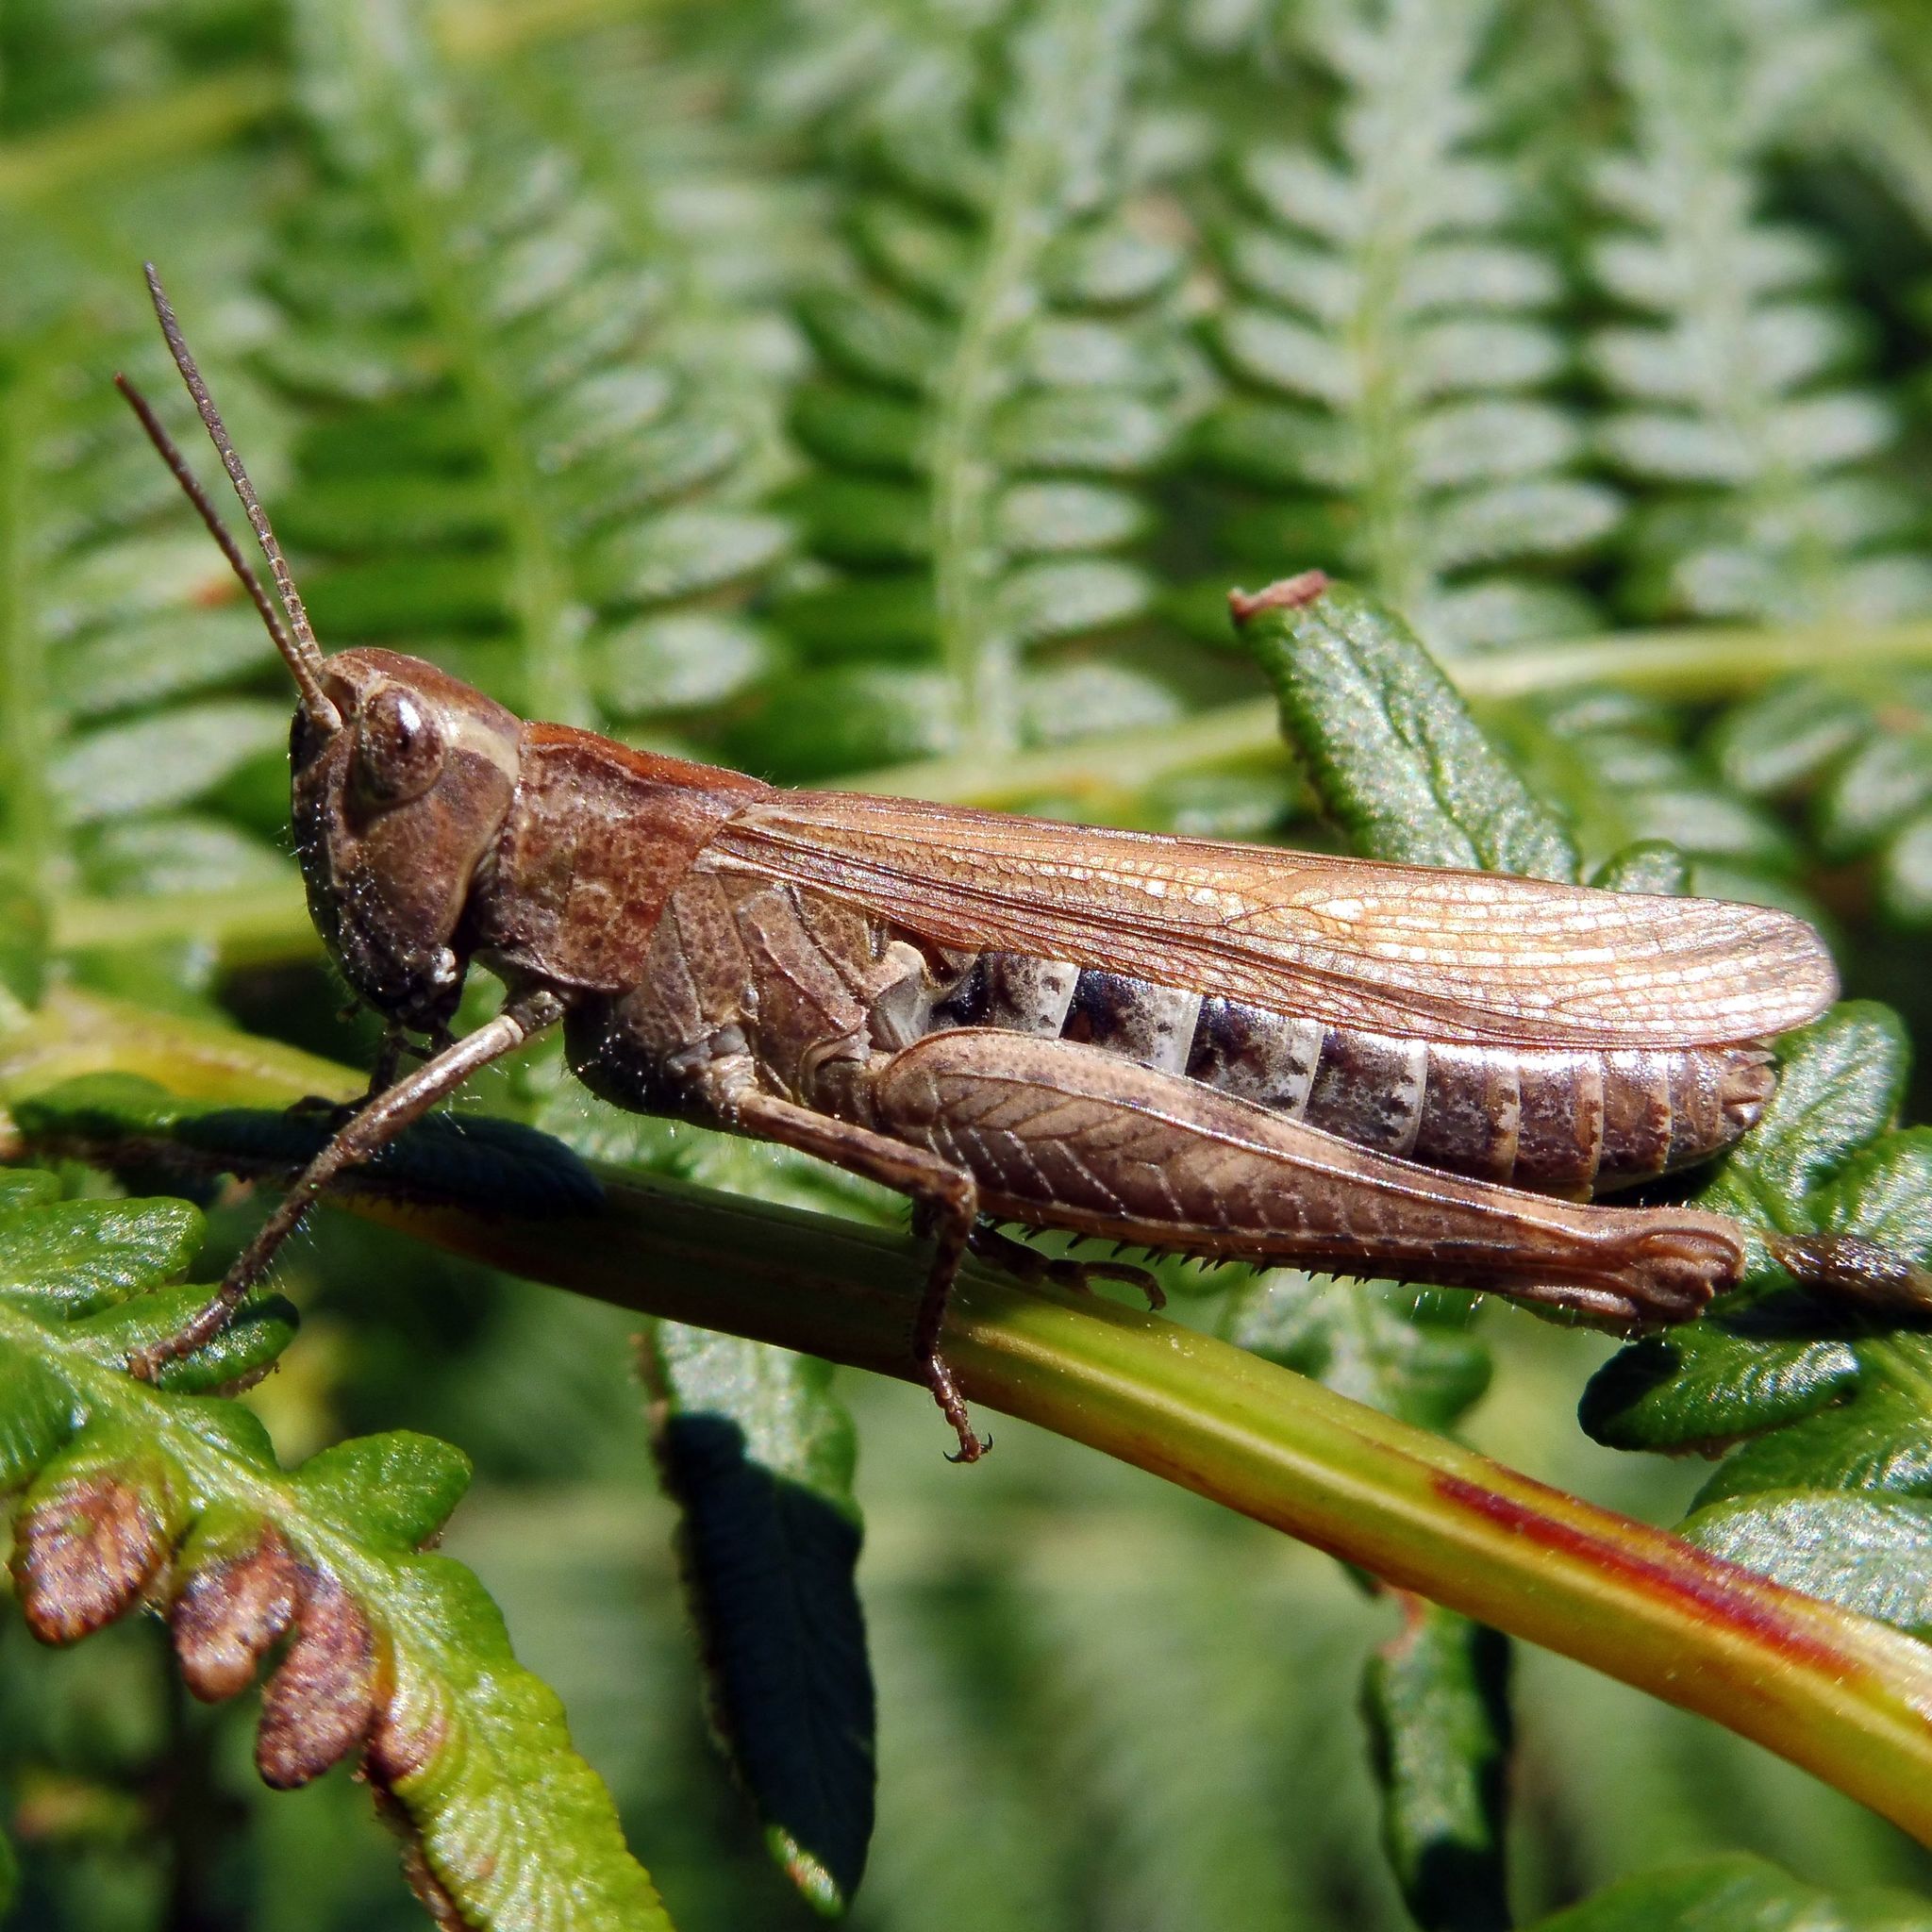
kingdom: Animalia
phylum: Arthropoda
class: Insecta
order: Orthoptera
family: Acrididae
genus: Chorthippus
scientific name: Chorthippus brunneus
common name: Field grasshopper
